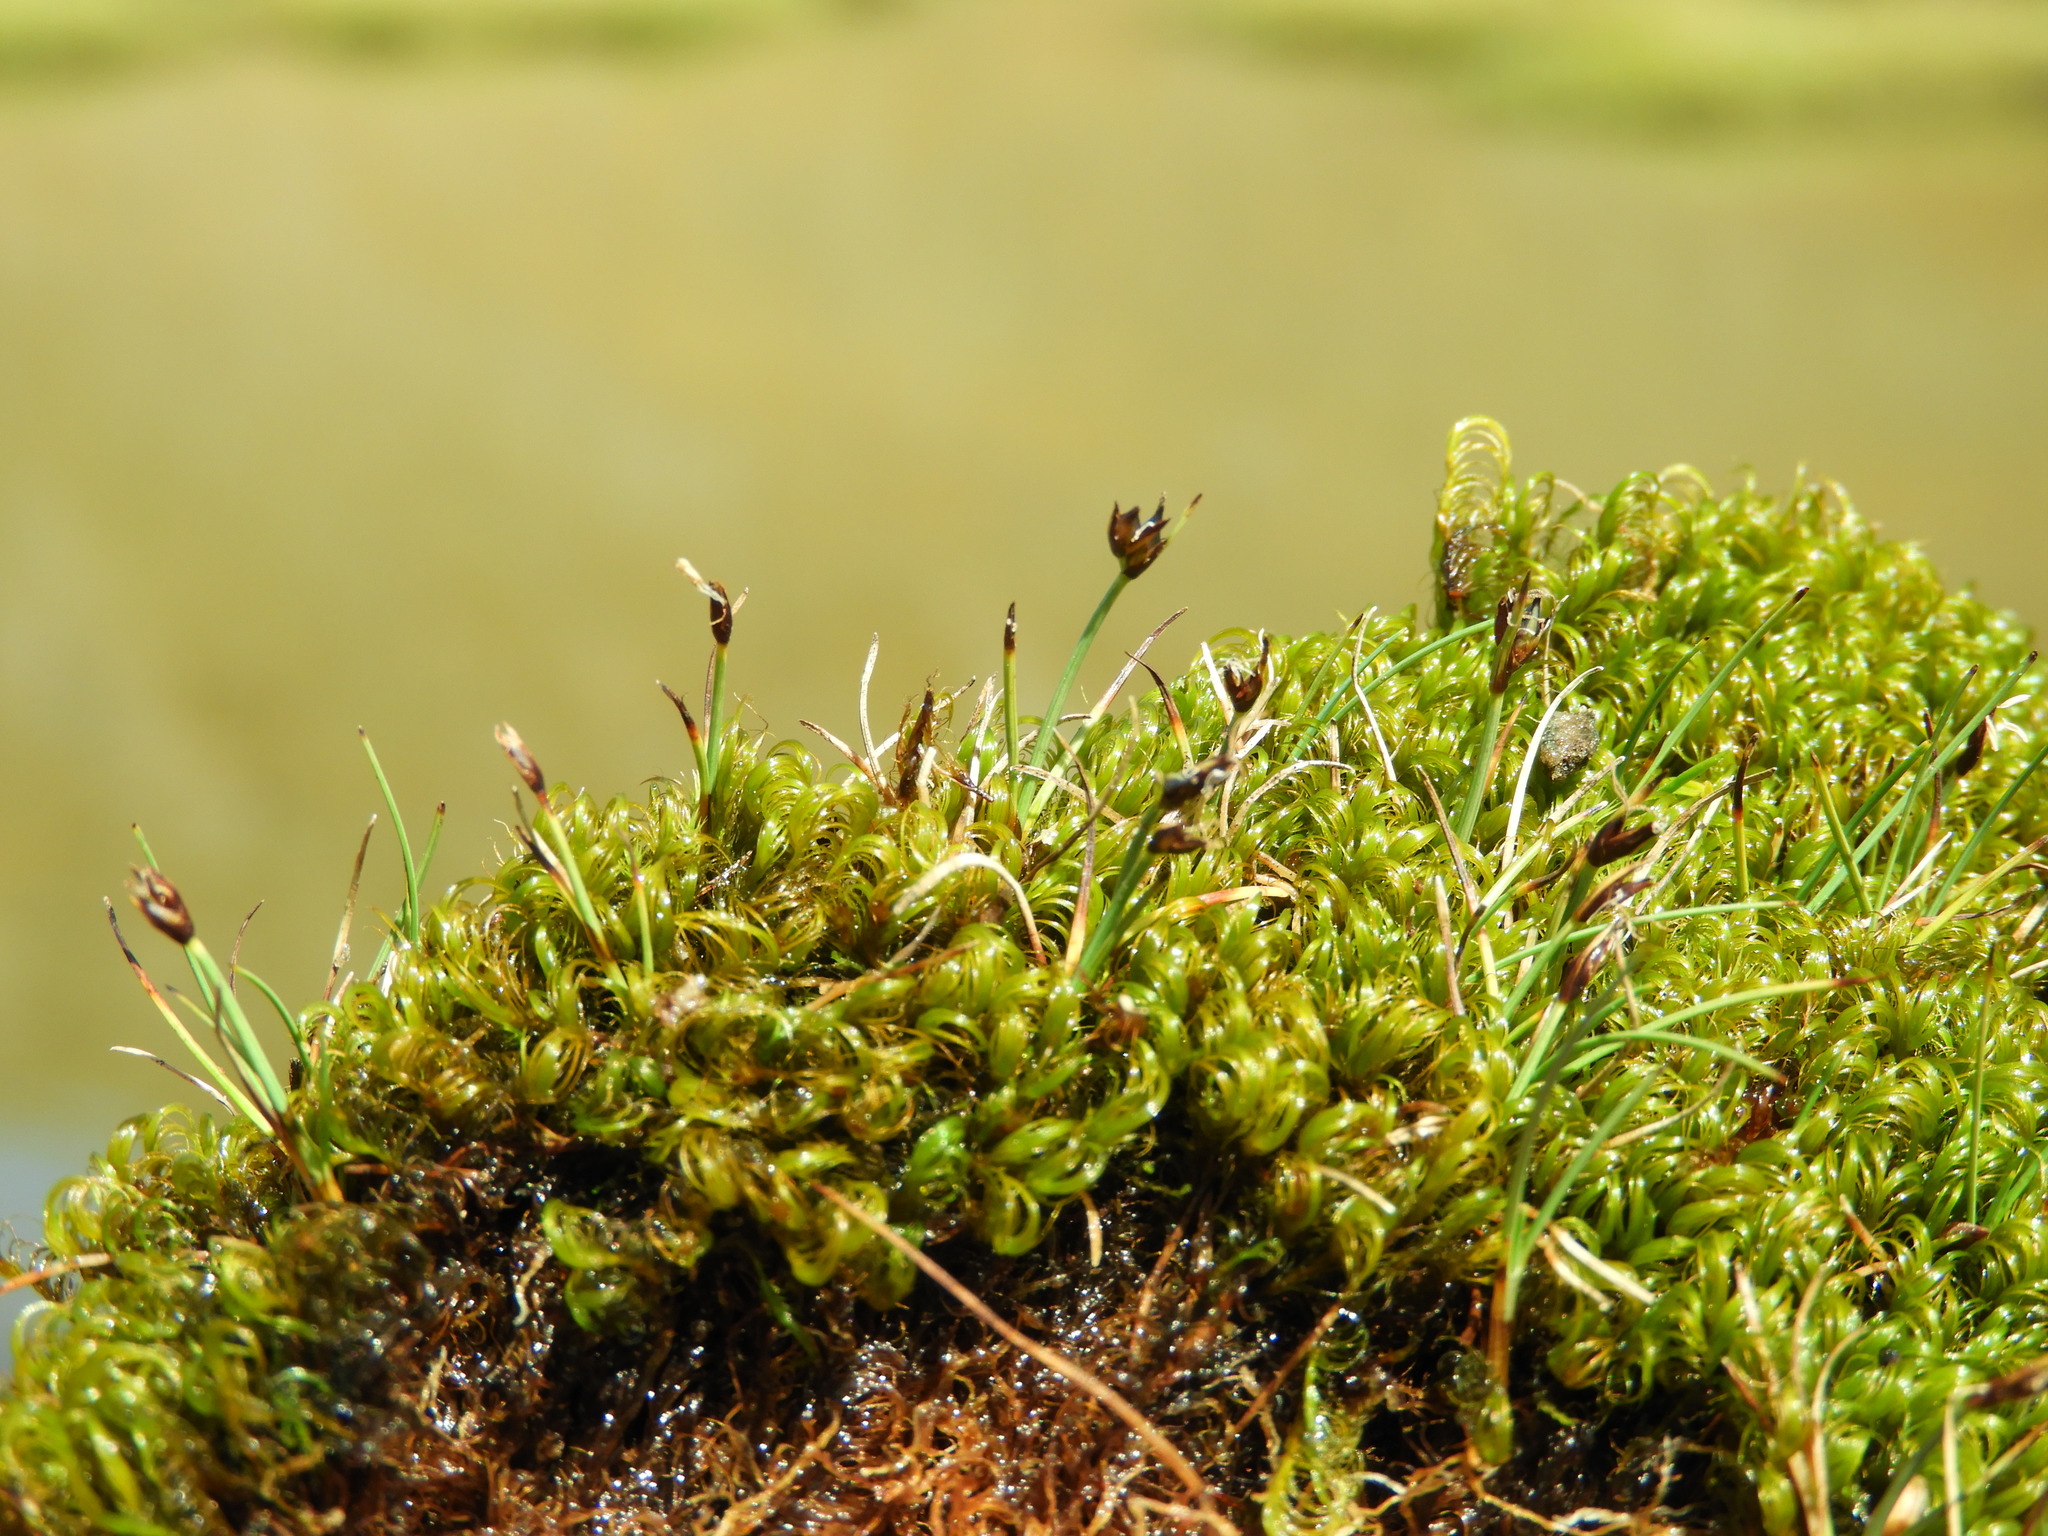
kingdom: Plantae
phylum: Tracheophyta
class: Liliopsida
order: Poales
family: Cyperaceae
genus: Carex
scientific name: Carex enysii
